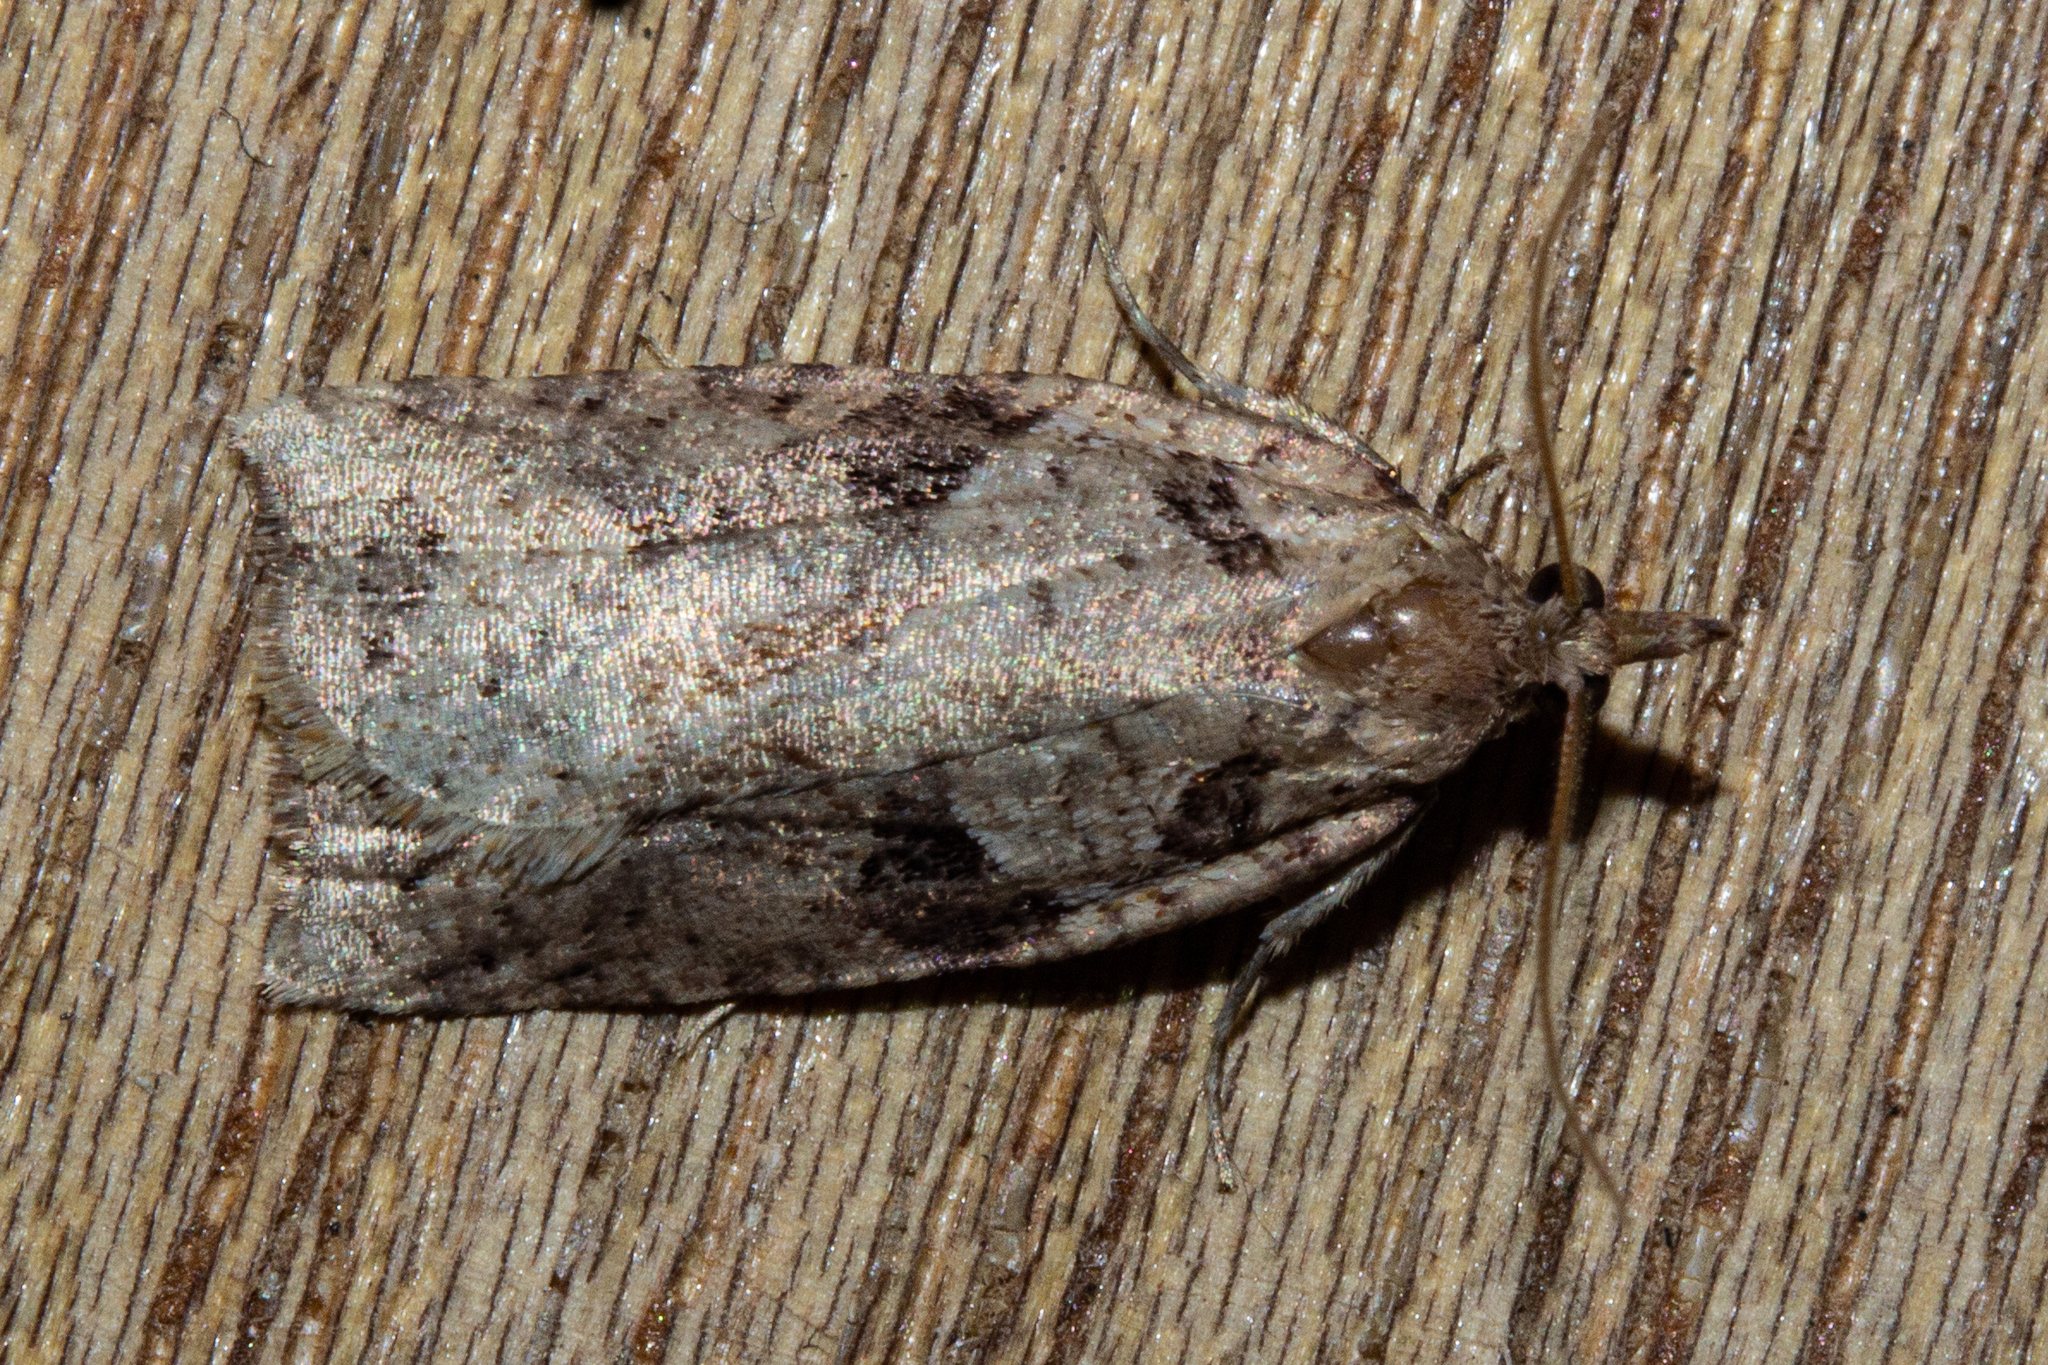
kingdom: Animalia
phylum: Arthropoda
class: Insecta
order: Lepidoptera
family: Tortricidae
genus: Ctenopseustis
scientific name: Ctenopseustis obliquana
